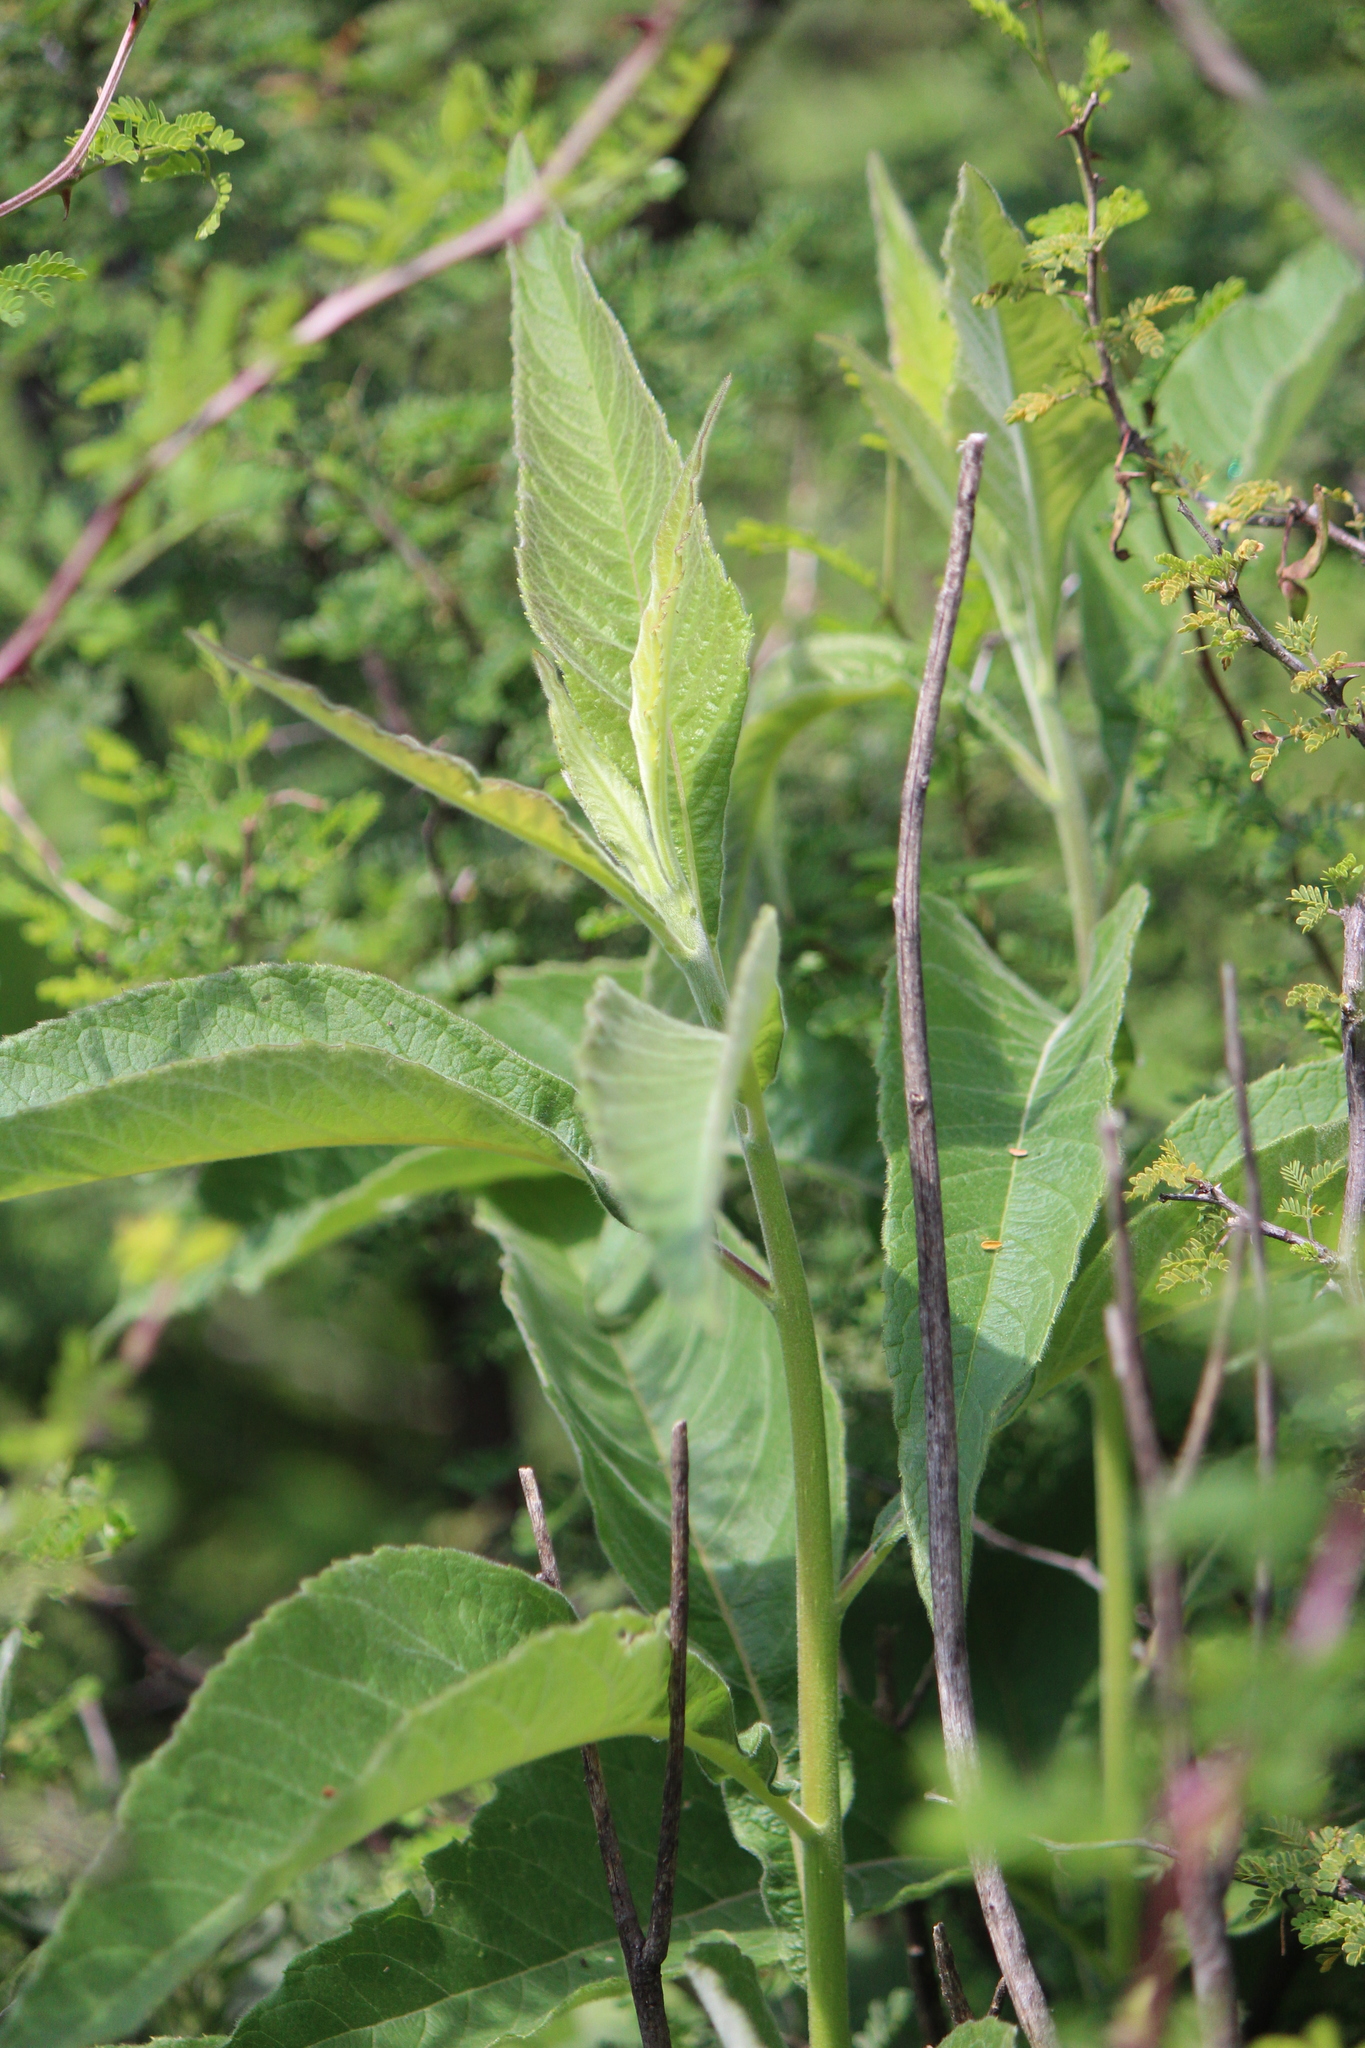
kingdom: Plantae
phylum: Tracheophyta
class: Magnoliopsida
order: Asterales
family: Asteraceae
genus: Verbesina
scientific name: Verbesina robinsonii
